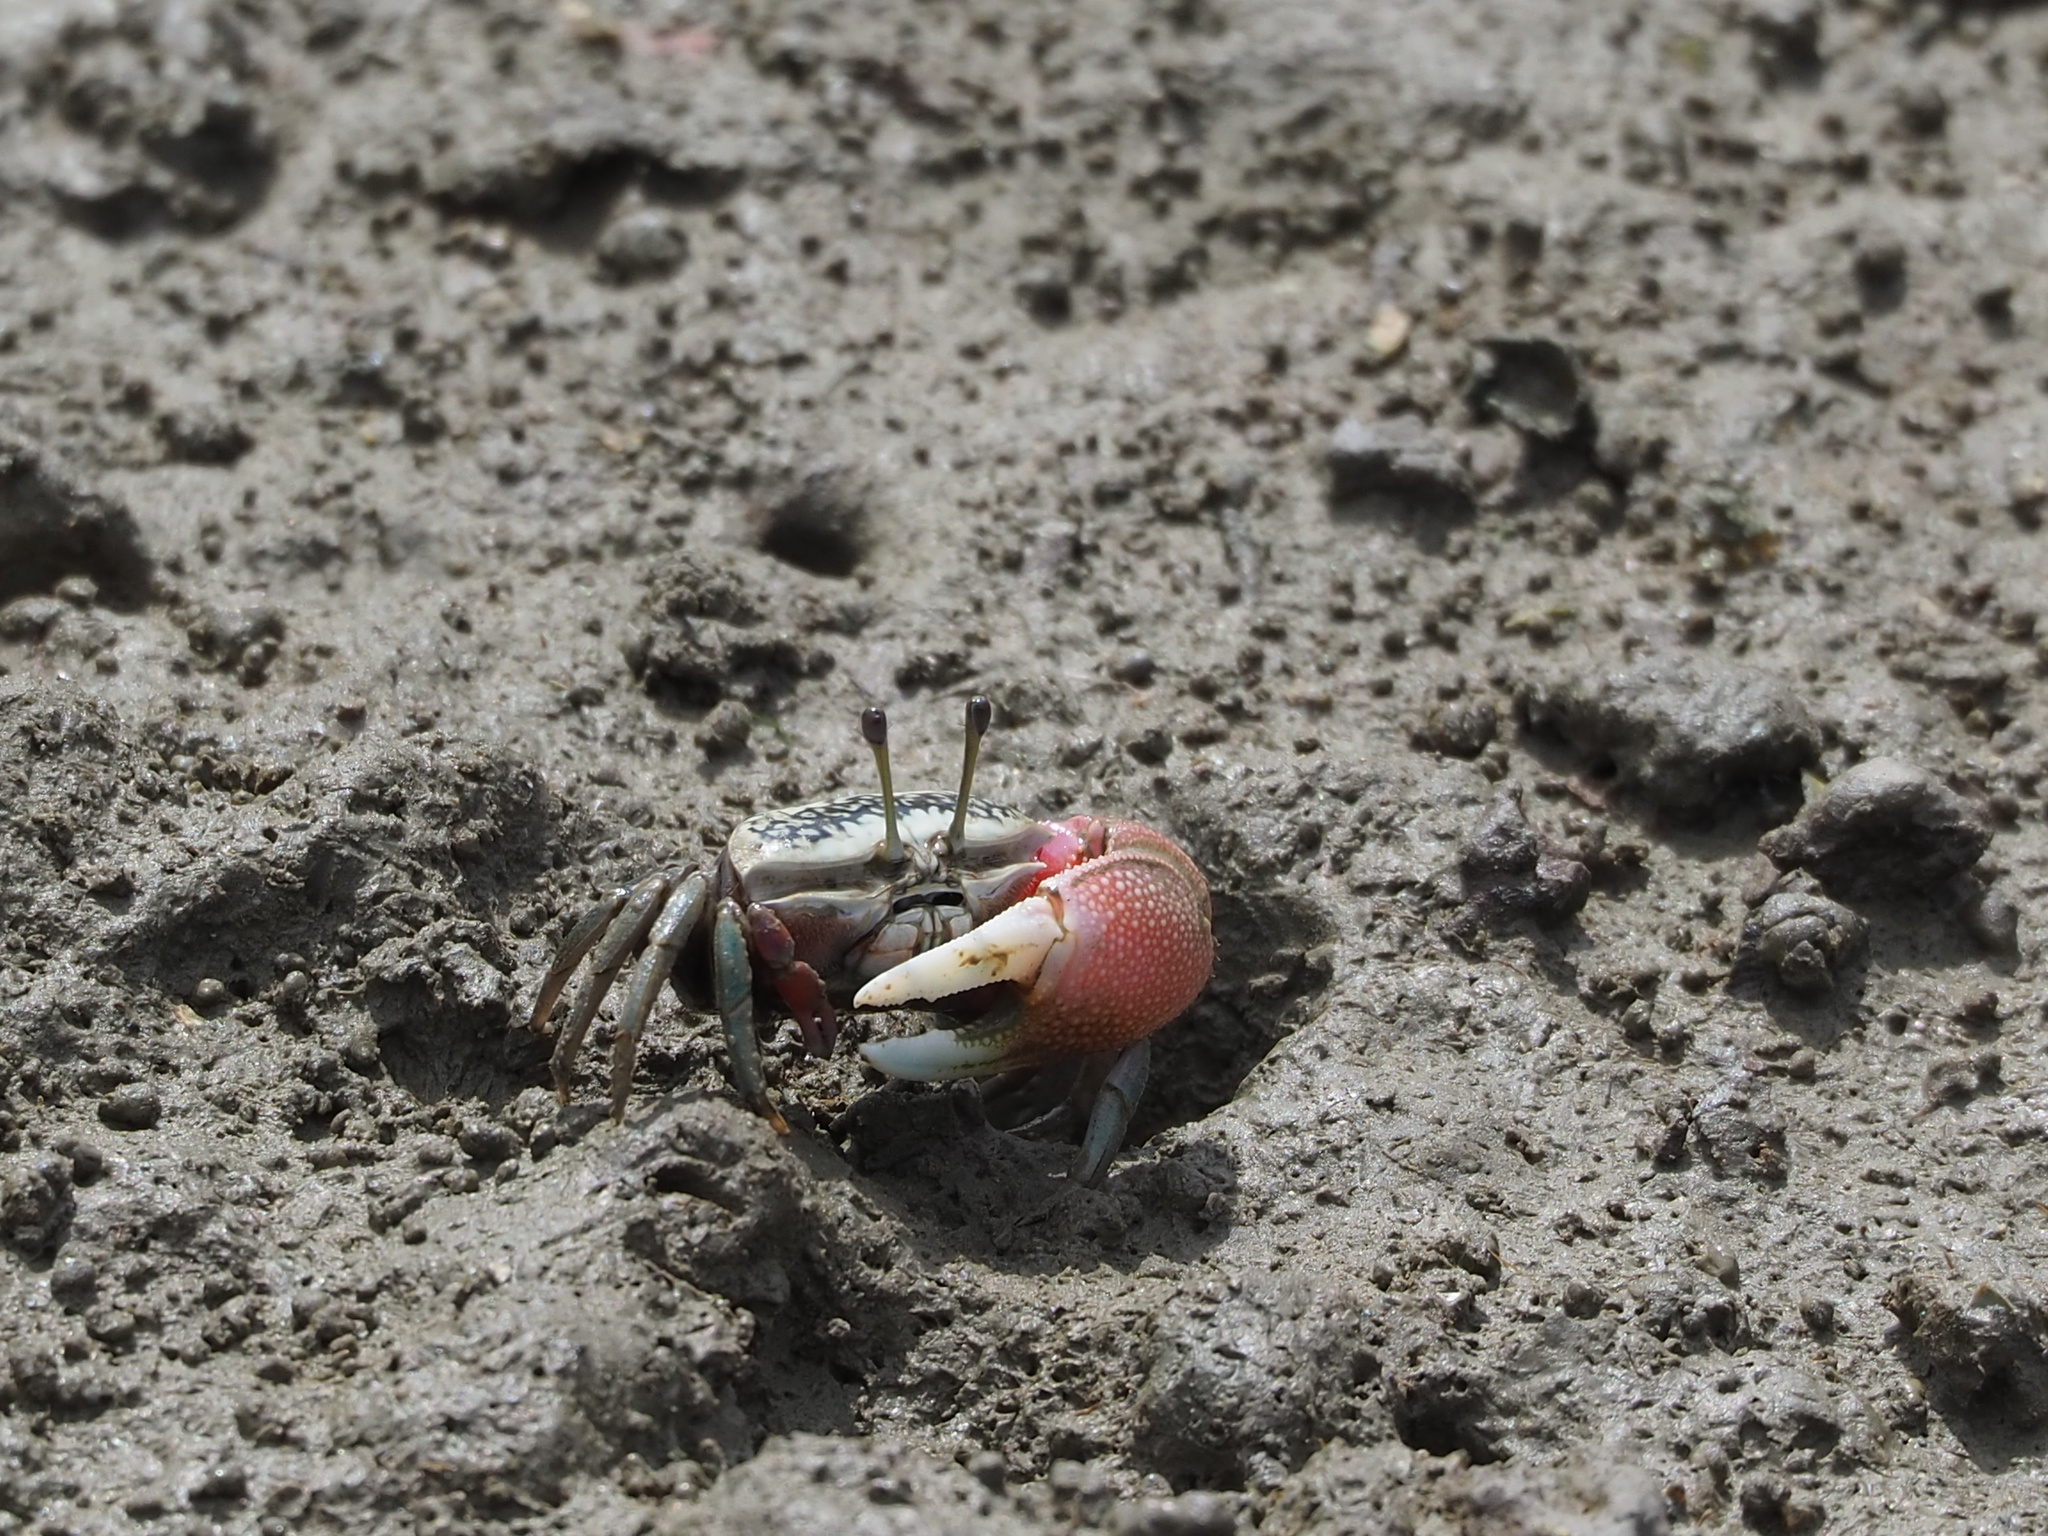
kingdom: Animalia
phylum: Arthropoda
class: Malacostraca
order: Decapoda
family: Ocypodidae
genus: Tubuca
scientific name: Tubuca arcuata
